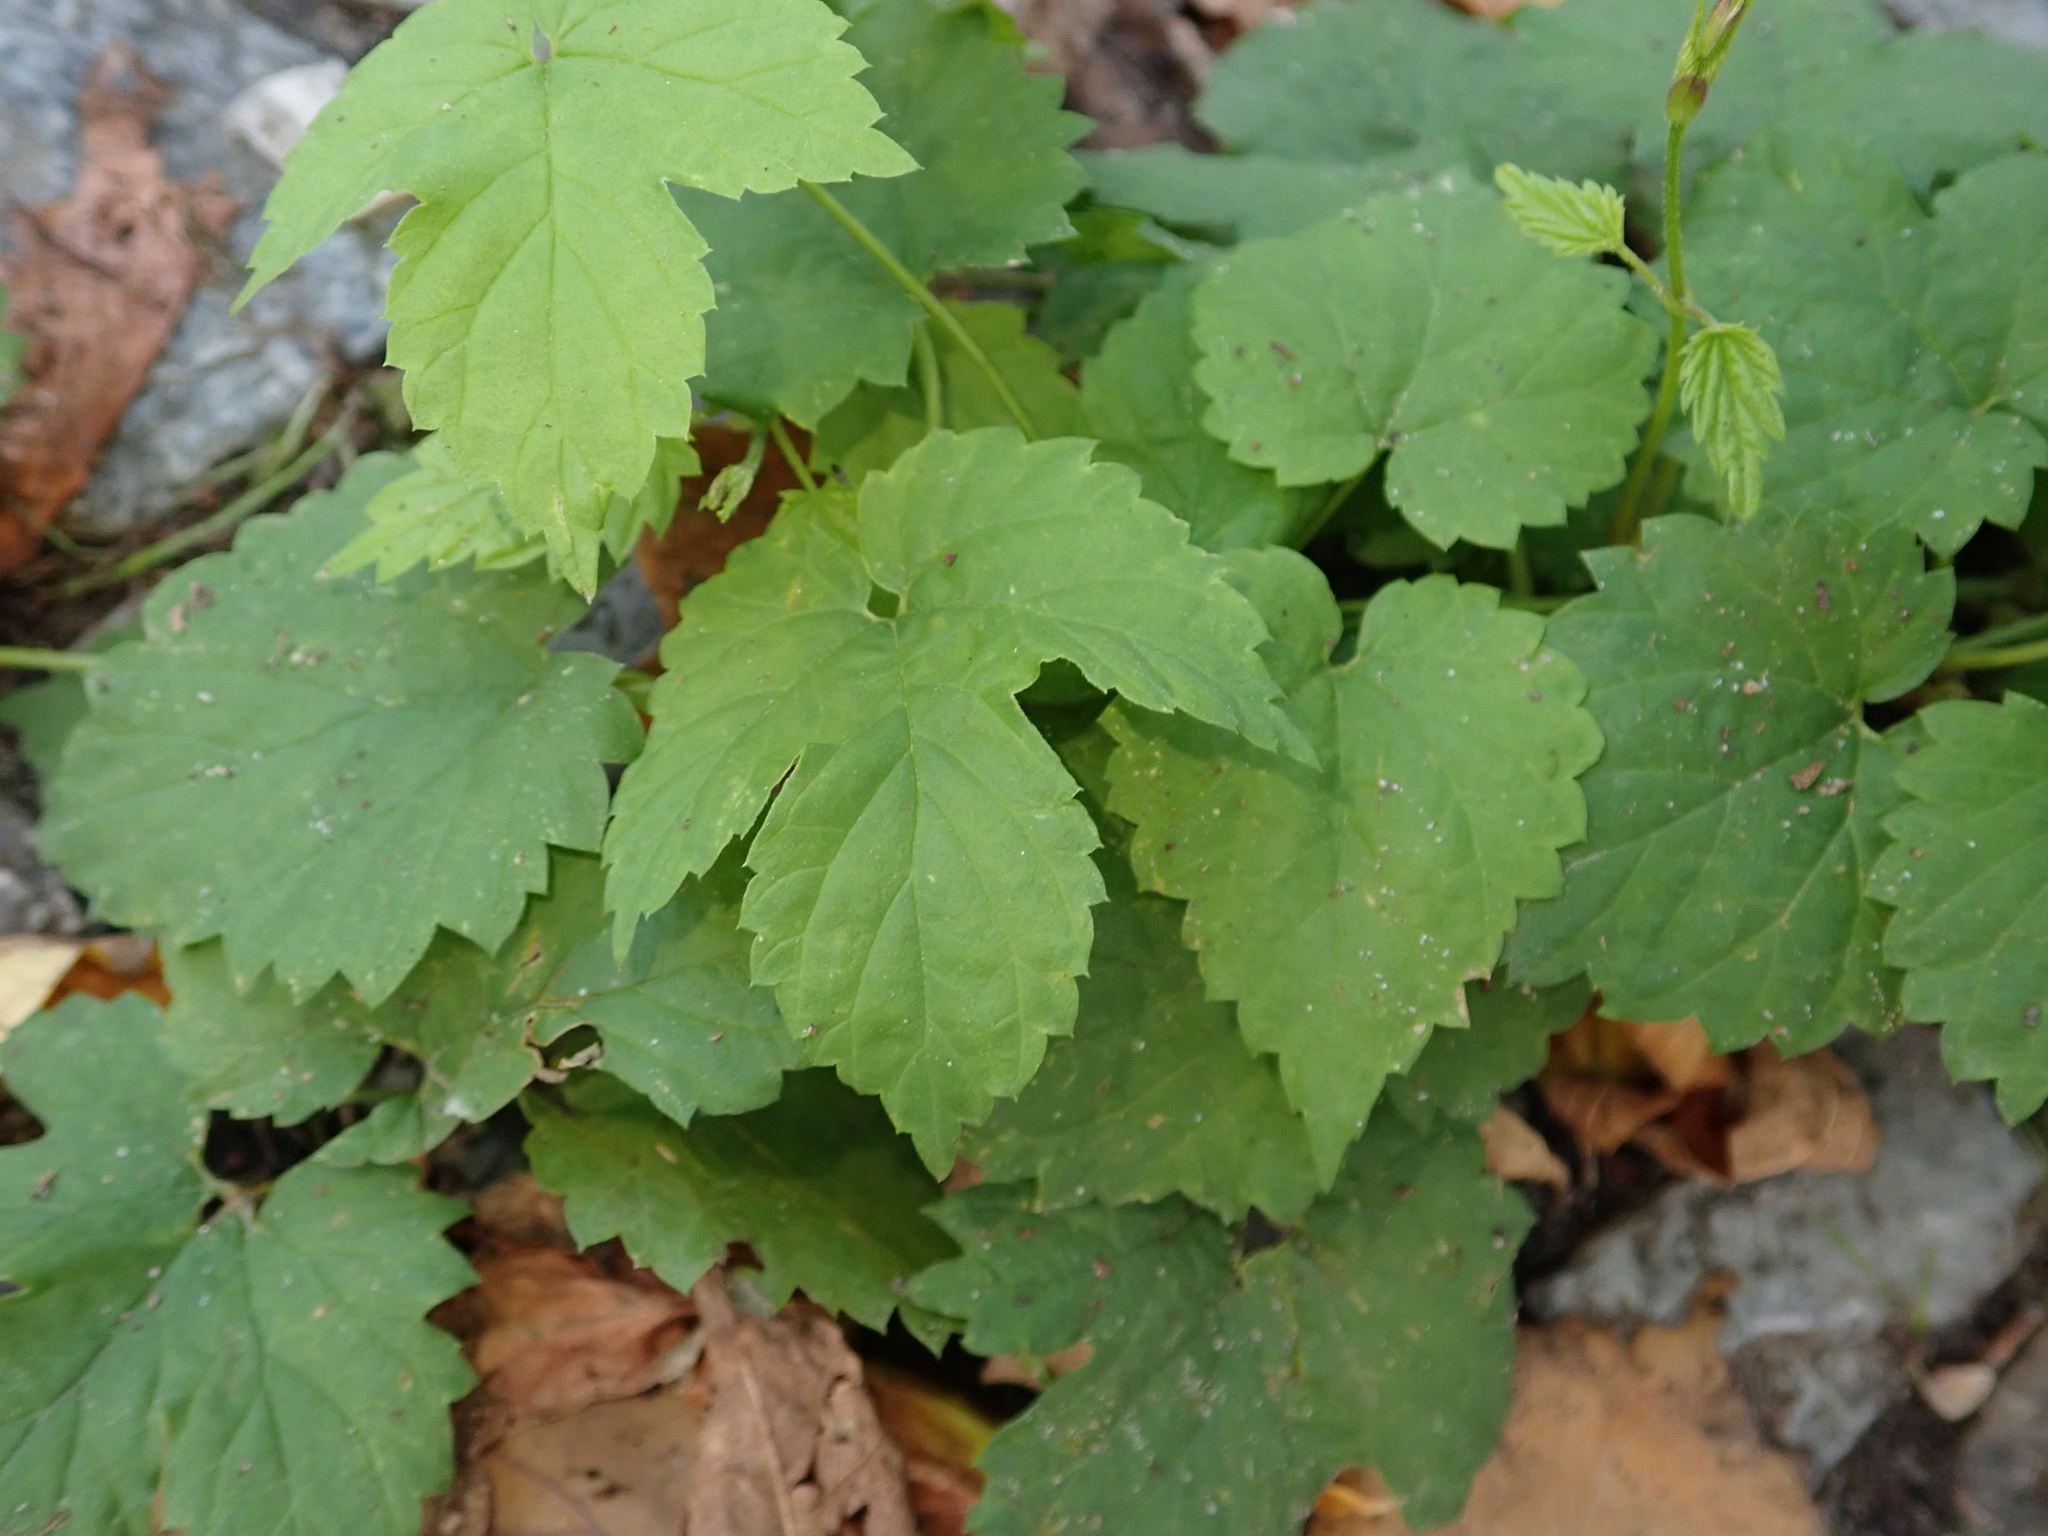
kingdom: Plantae
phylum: Tracheophyta
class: Magnoliopsida
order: Rosales
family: Cannabaceae
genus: Humulus
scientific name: Humulus lupulus
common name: Hop
